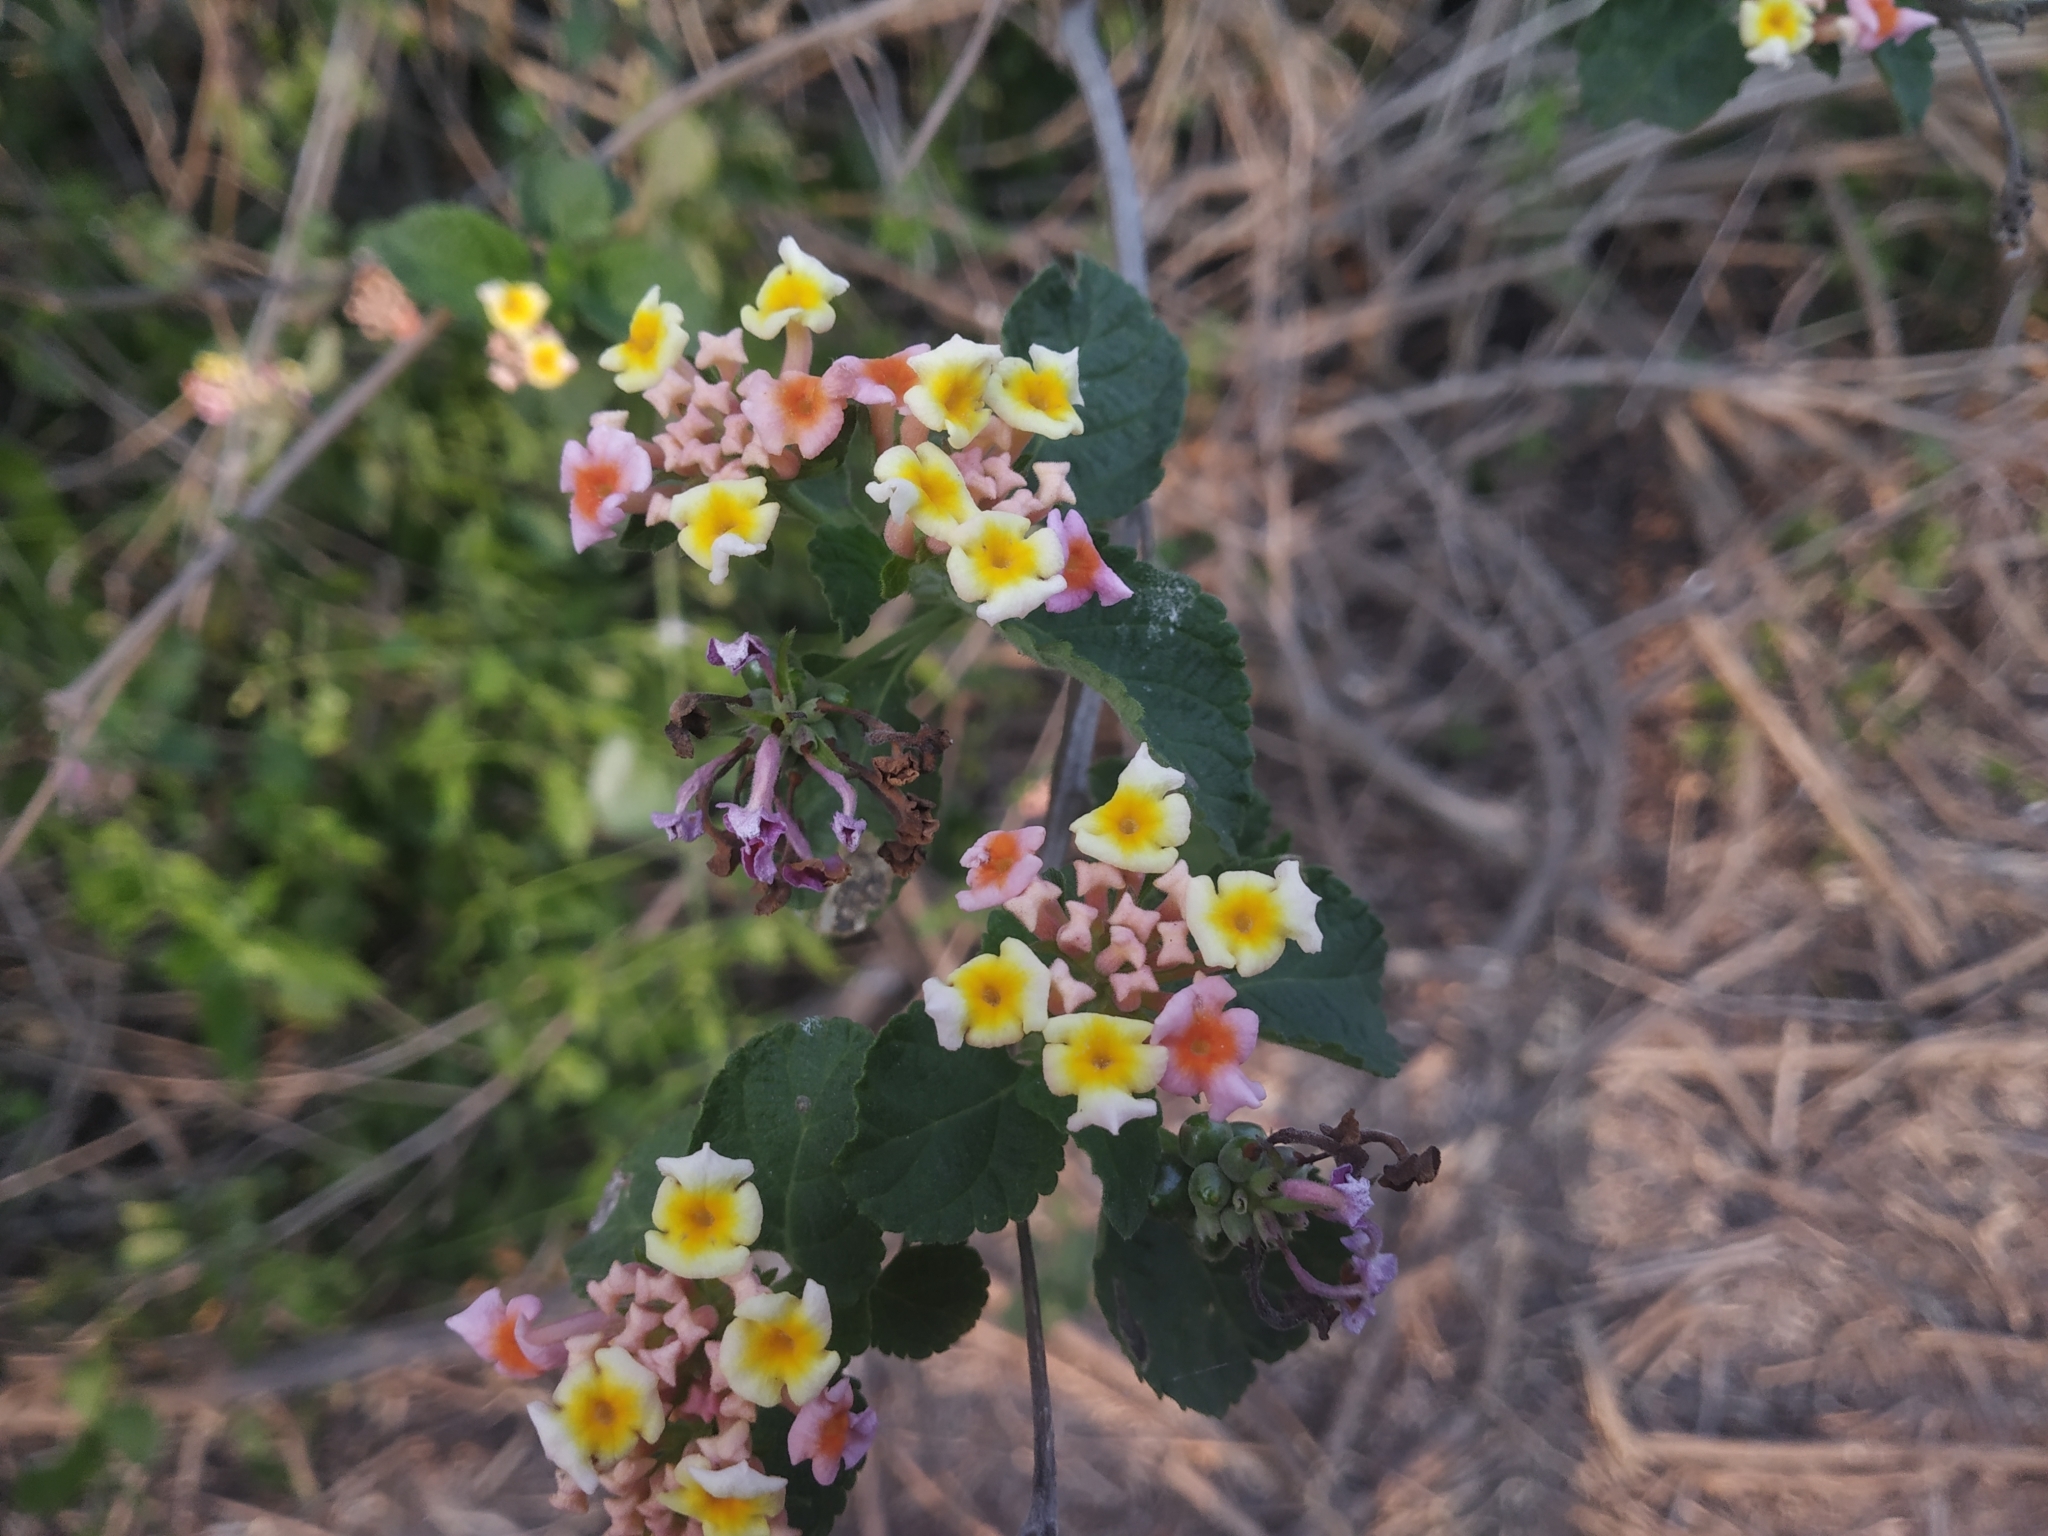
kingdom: Plantae
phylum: Tracheophyta
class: Magnoliopsida
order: Lamiales
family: Verbenaceae
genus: Lantana
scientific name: Lantana camara
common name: Lantana
